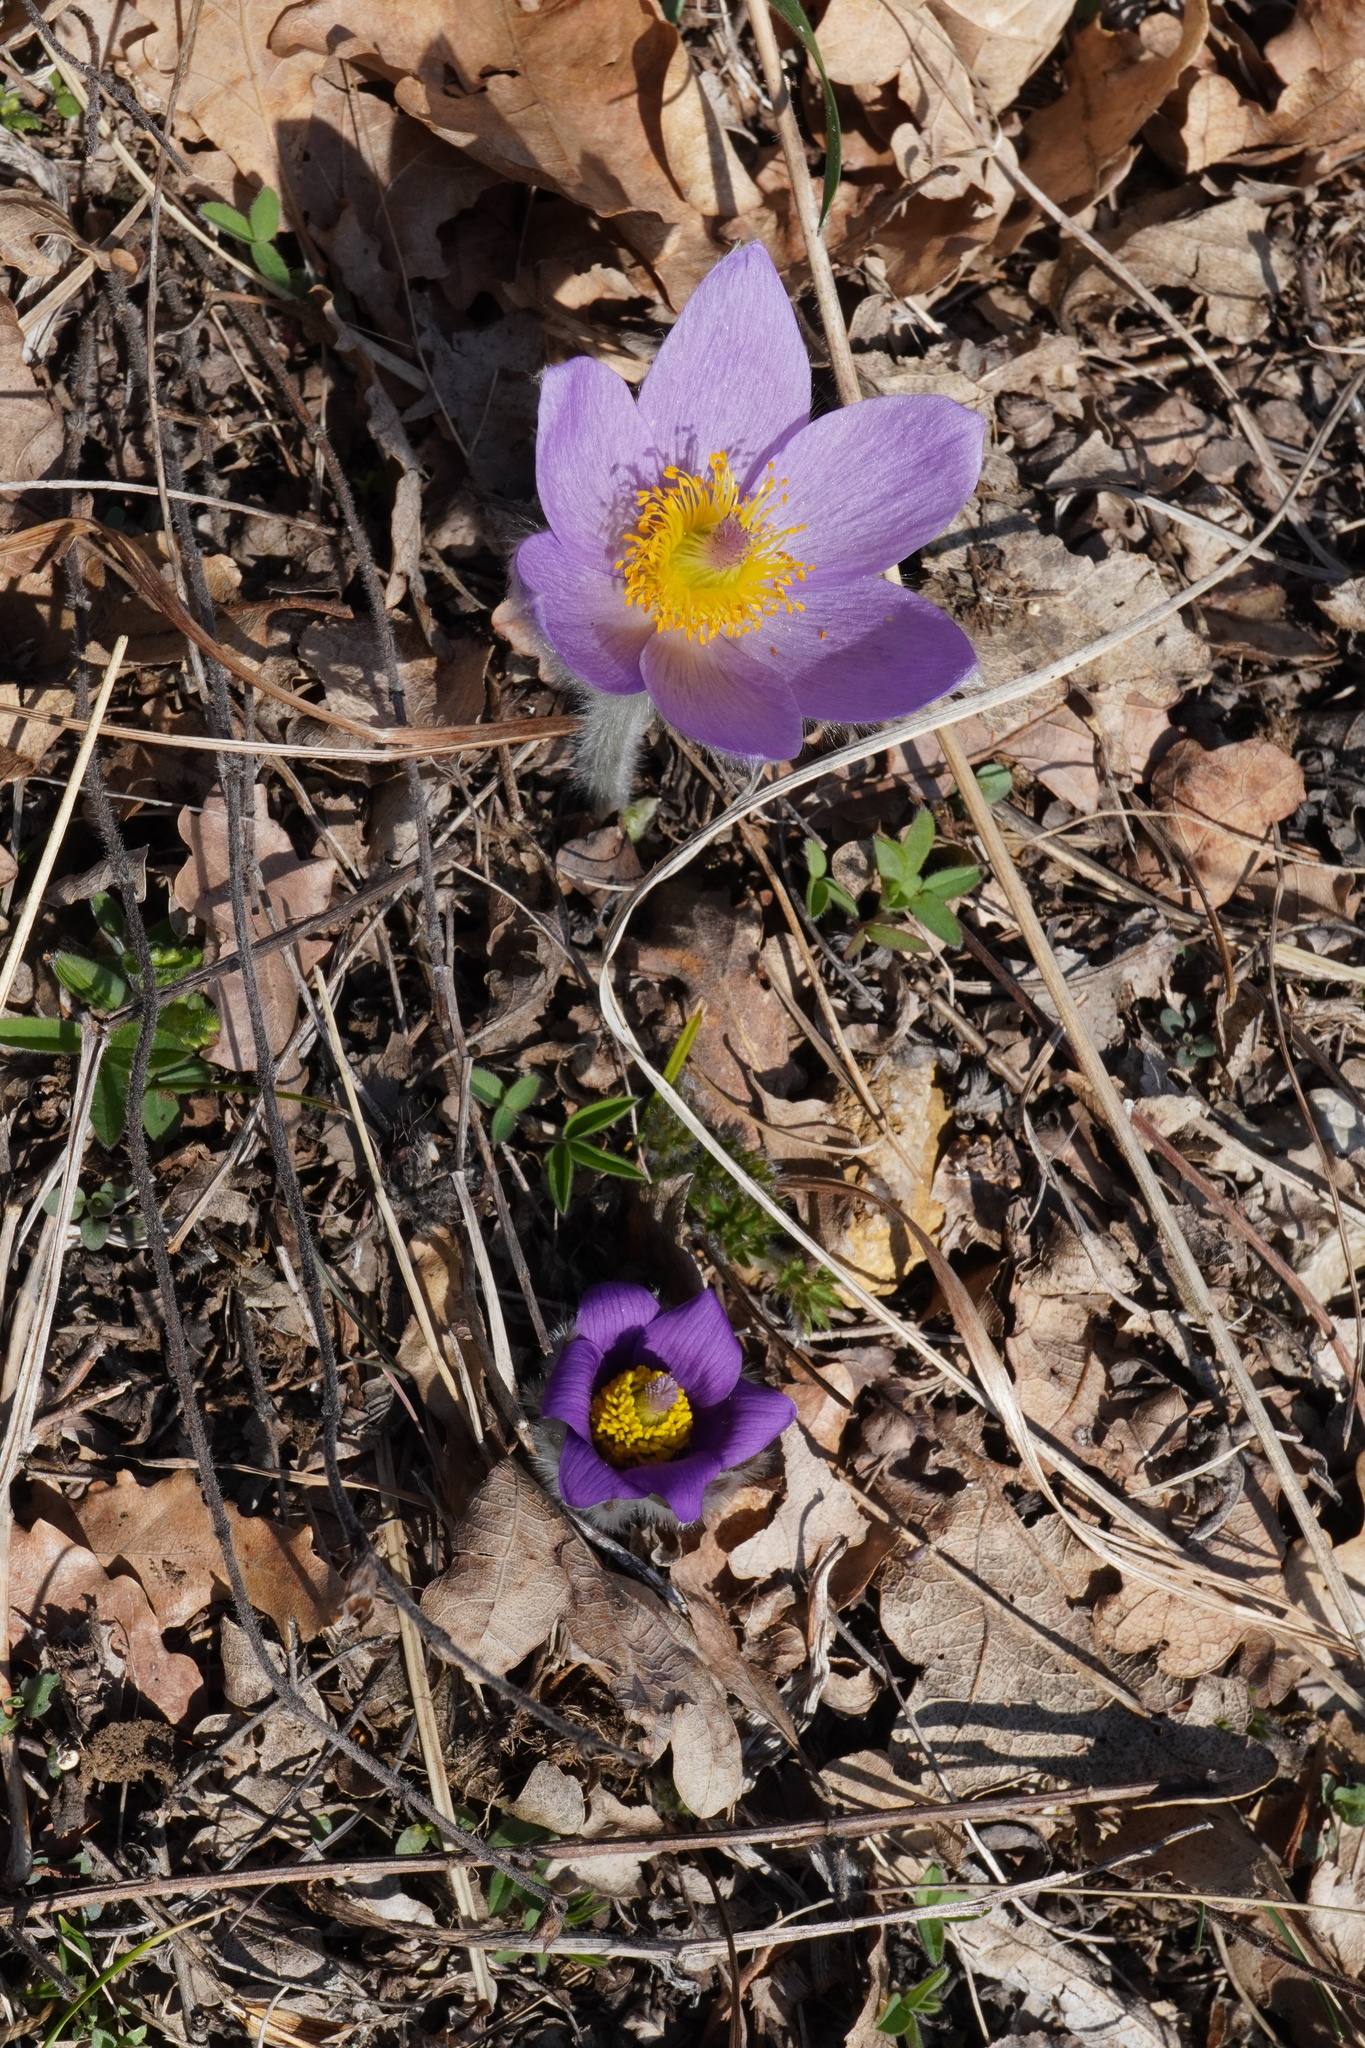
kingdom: Plantae
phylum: Tracheophyta
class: Magnoliopsida
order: Ranunculales
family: Ranunculaceae
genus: Pulsatilla
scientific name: Pulsatilla grandis
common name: Greater pasque flower
